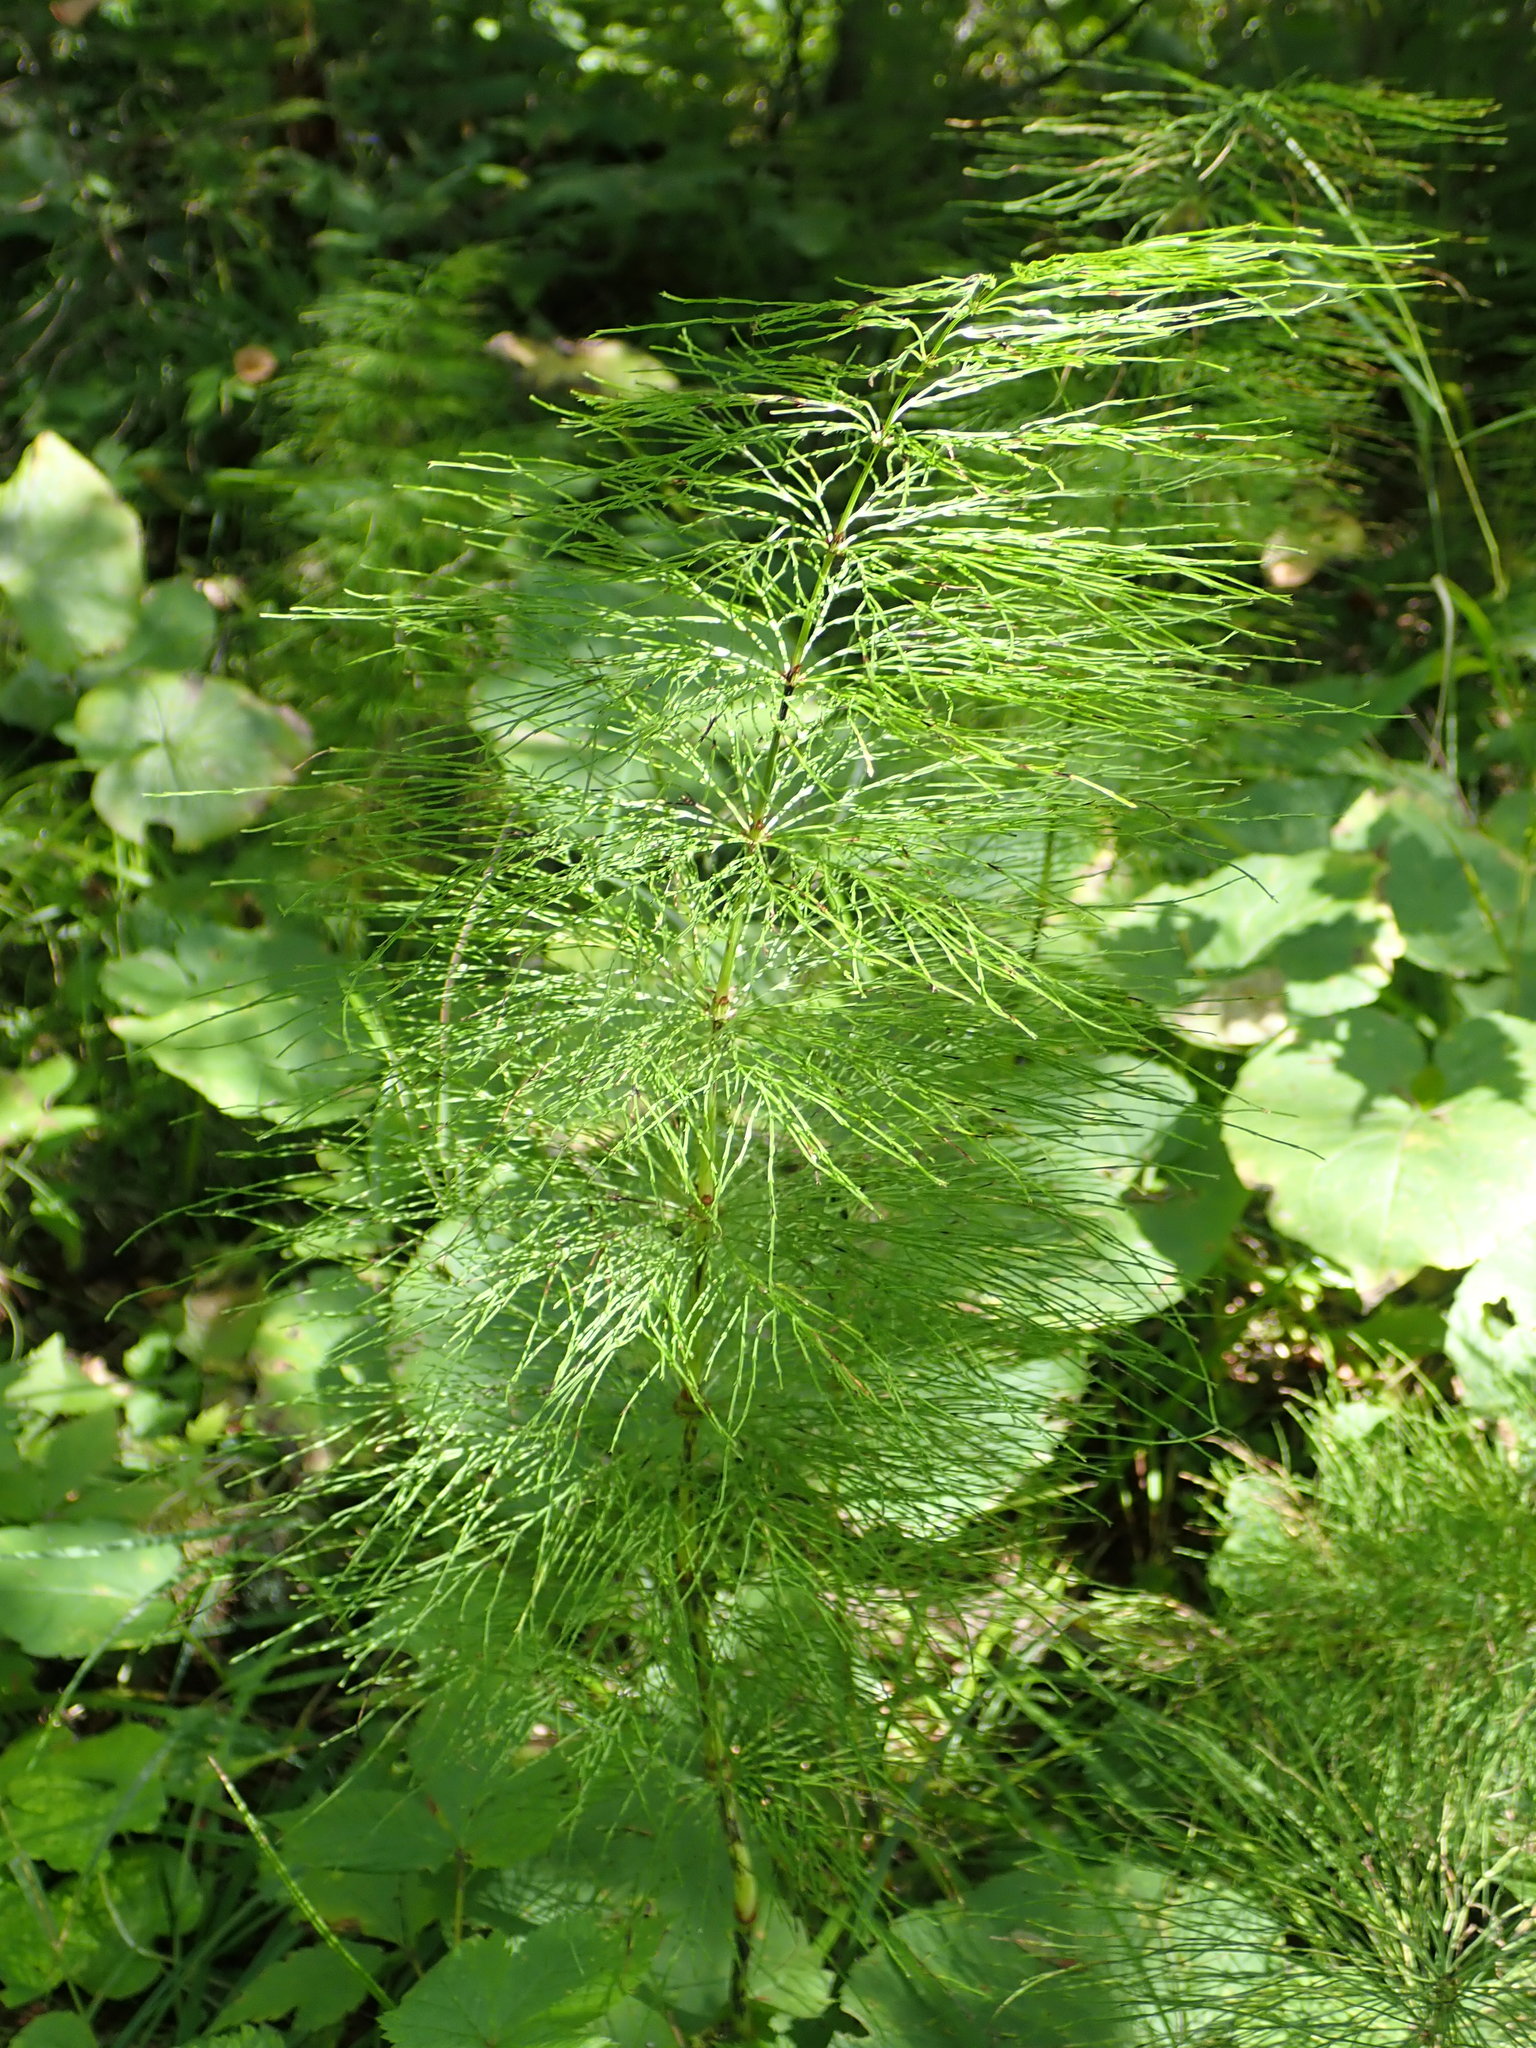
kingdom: Plantae
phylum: Tracheophyta
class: Polypodiopsida
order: Equisetales
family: Equisetaceae
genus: Equisetum
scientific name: Equisetum sylvaticum
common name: Wood horsetail
